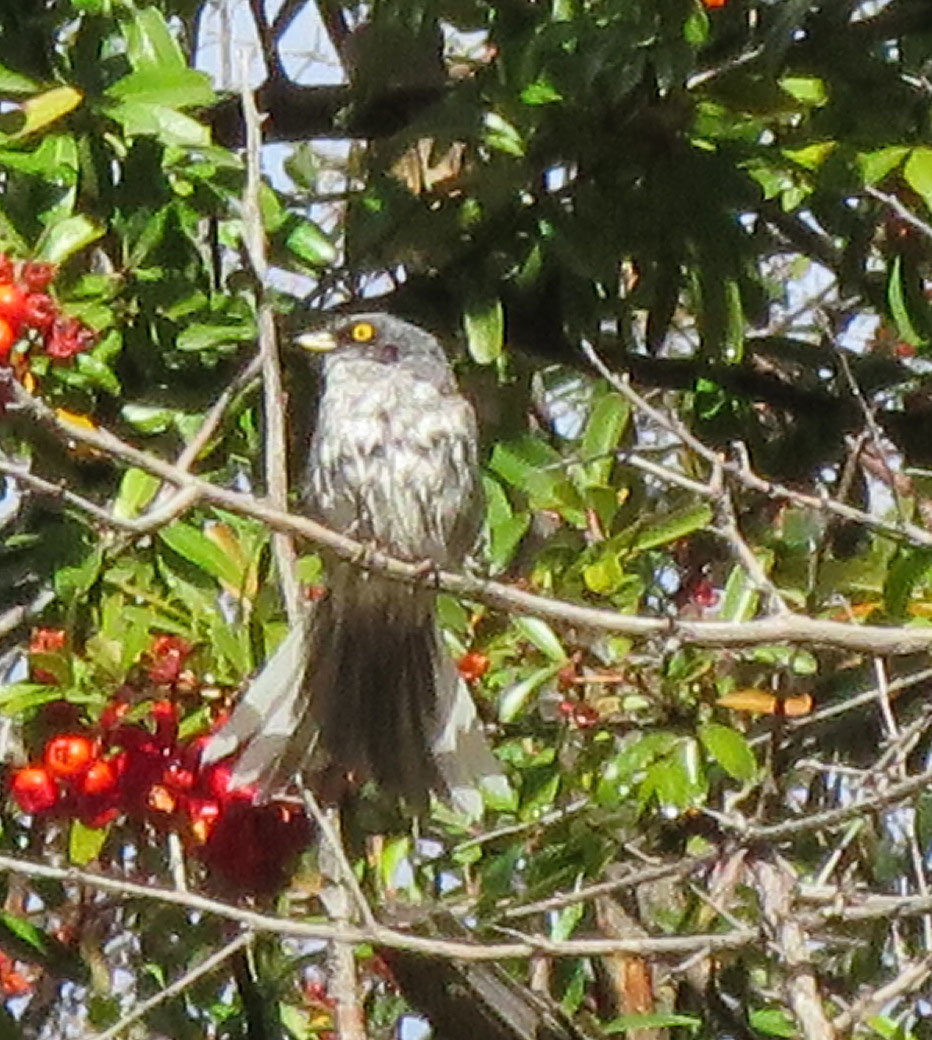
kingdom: Animalia
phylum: Chordata
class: Aves
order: Passeriformes
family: Passerellidae
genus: Junco
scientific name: Junco phaeonotus
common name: Yellow-eyed junco
